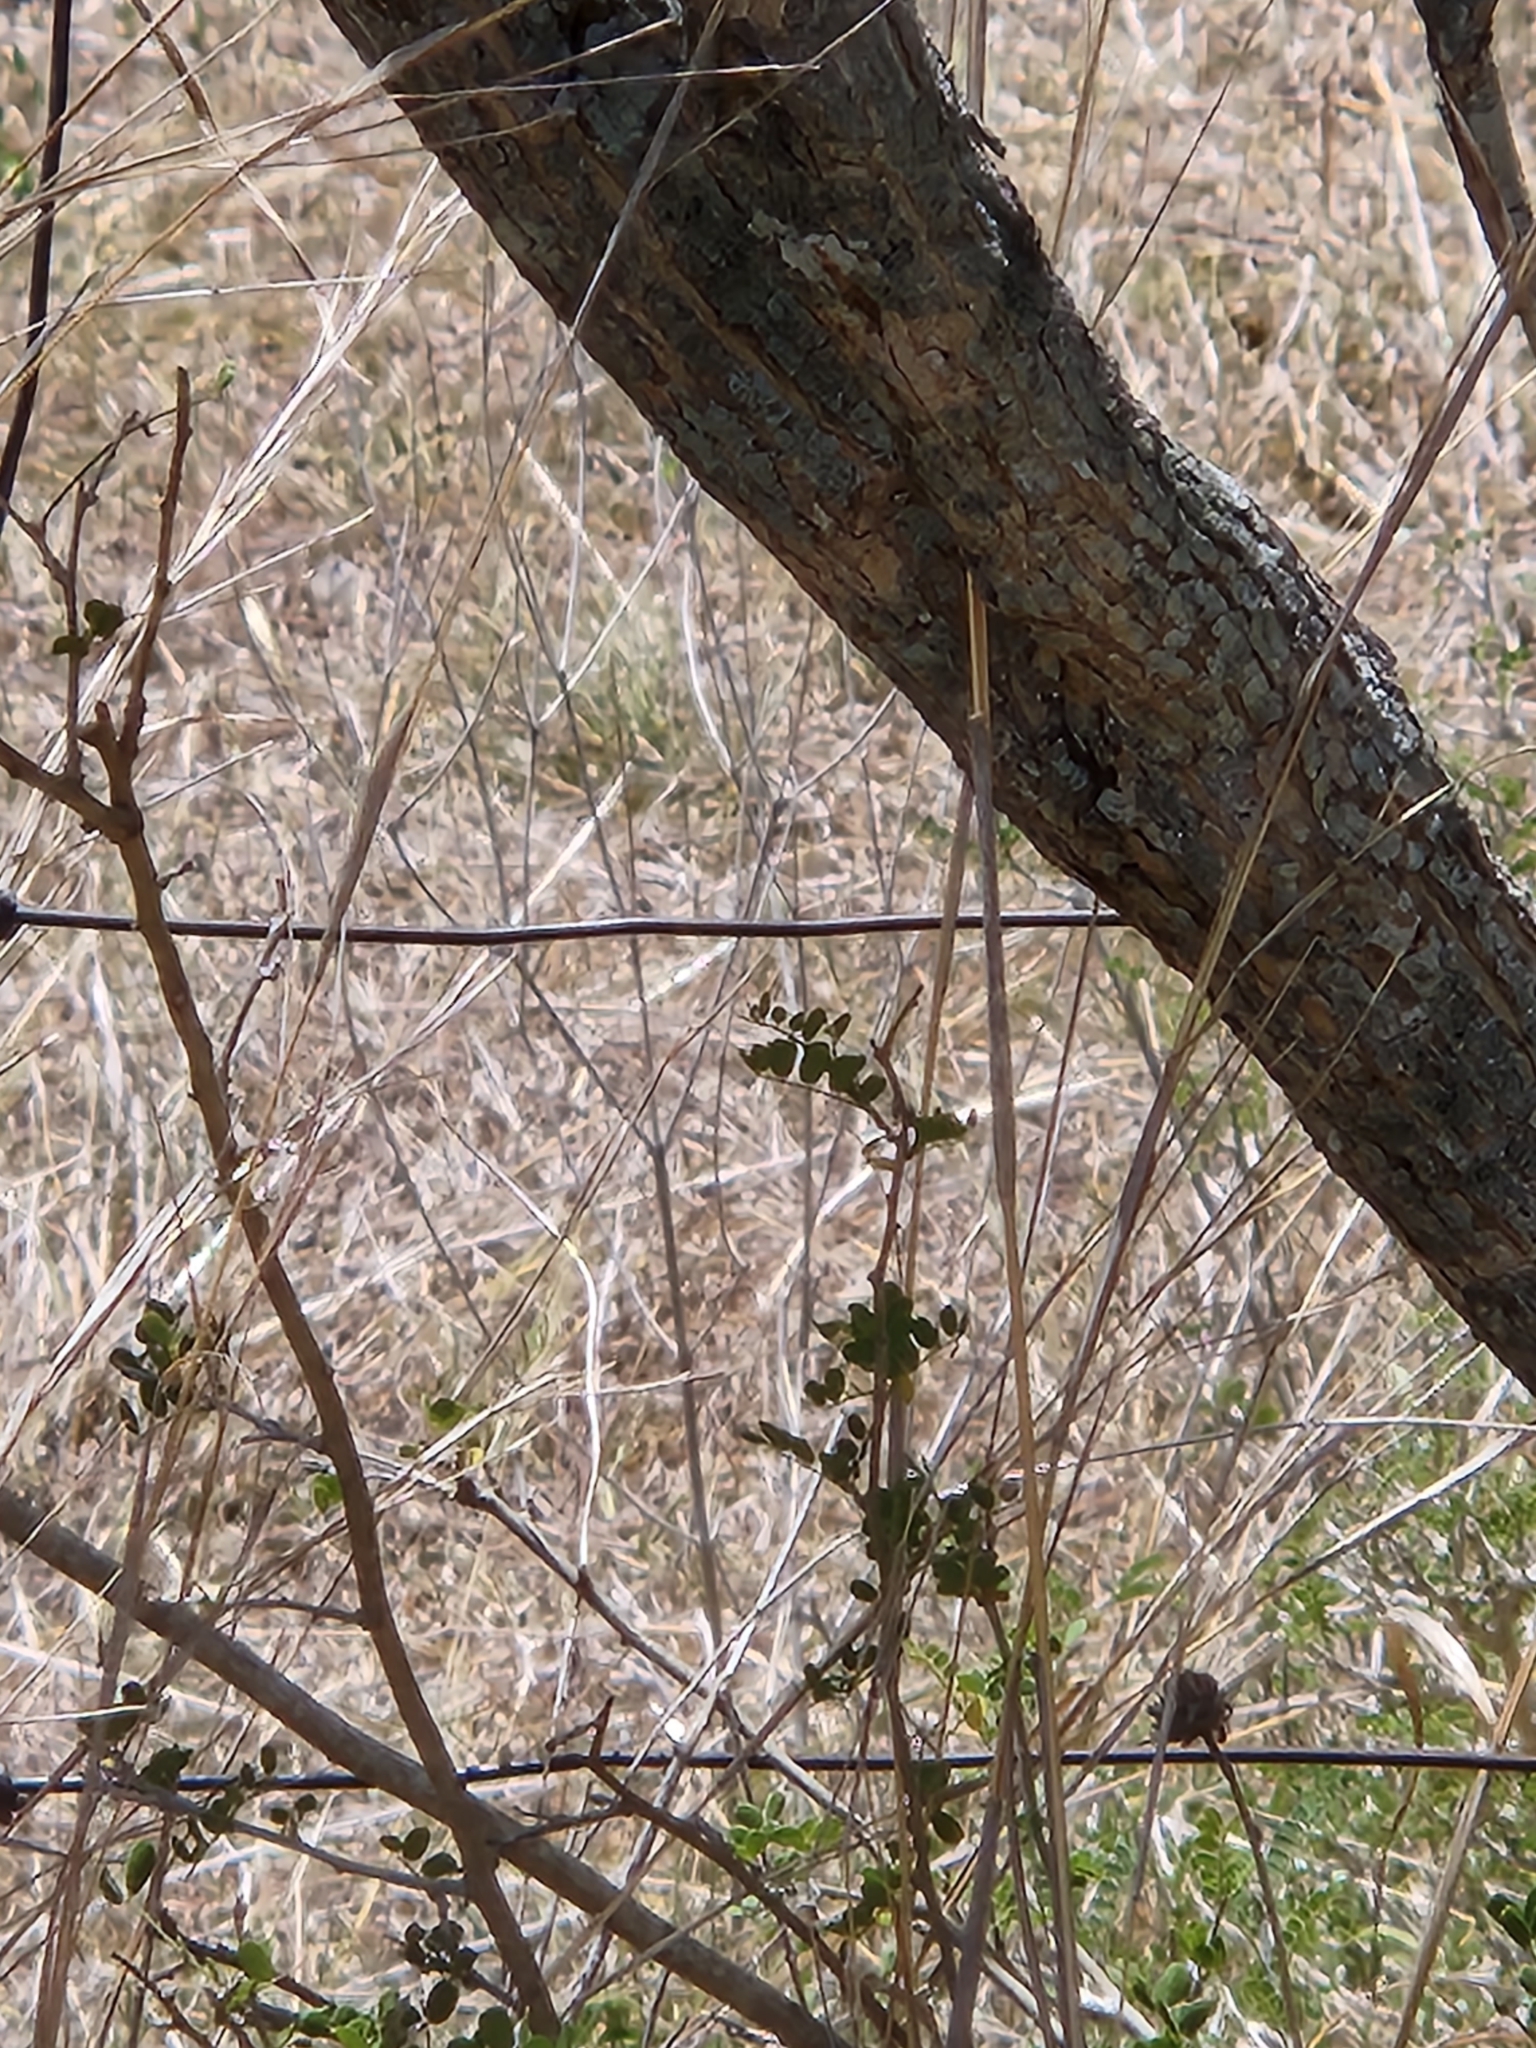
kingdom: Plantae
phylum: Tracheophyta
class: Magnoliopsida
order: Fabales
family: Fabaceae
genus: Eysenhardtia
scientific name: Eysenhardtia texana
